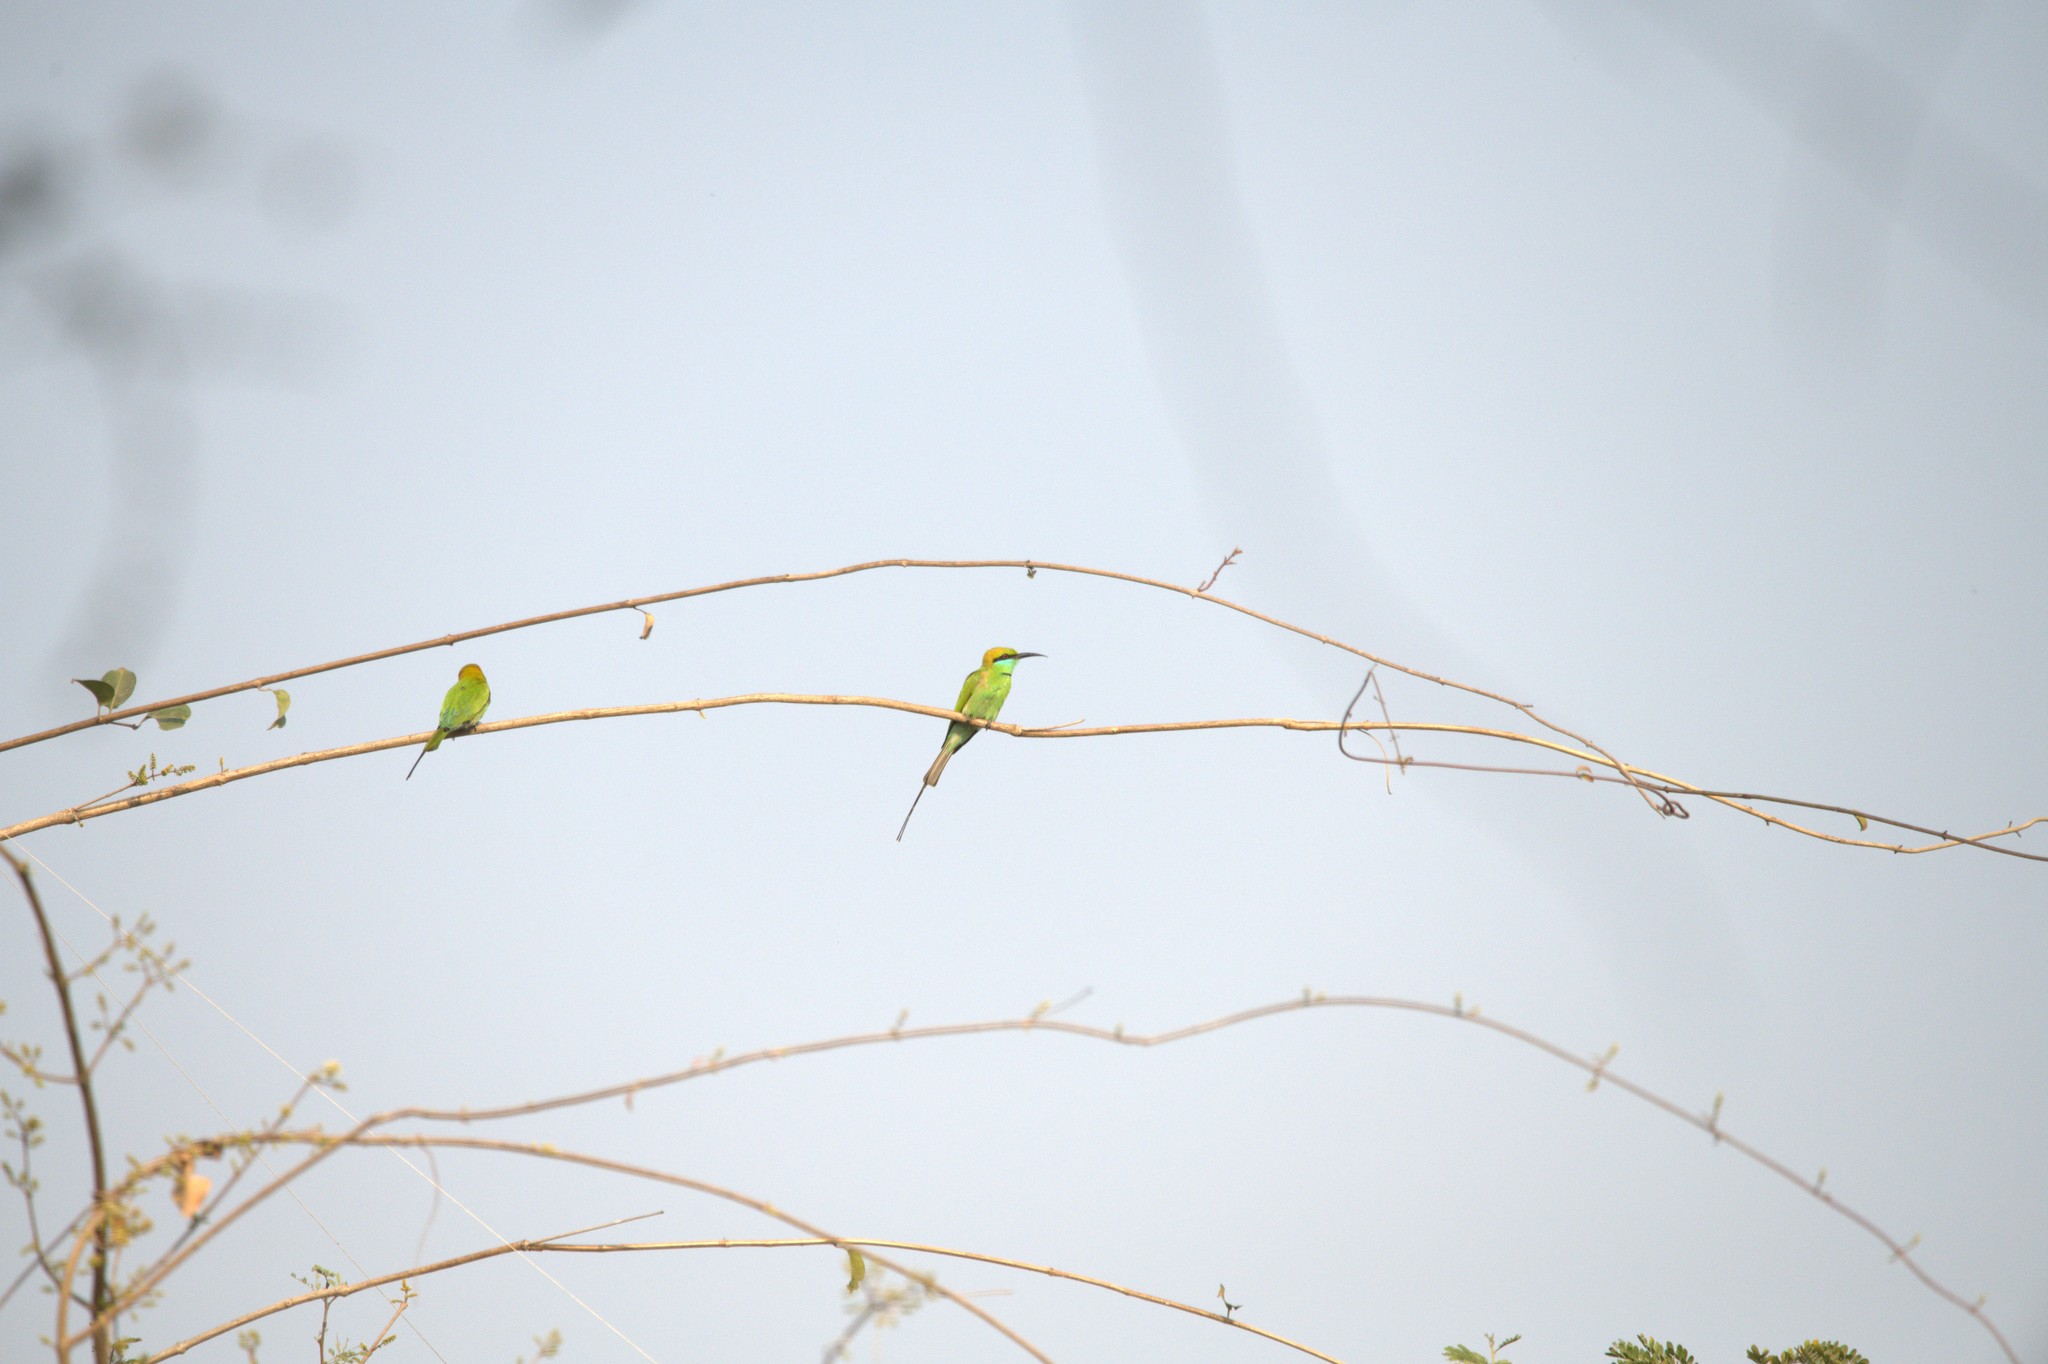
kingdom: Animalia
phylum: Chordata
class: Aves
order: Coraciiformes
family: Meropidae
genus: Merops
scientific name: Merops orientalis
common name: Green bee-eater
